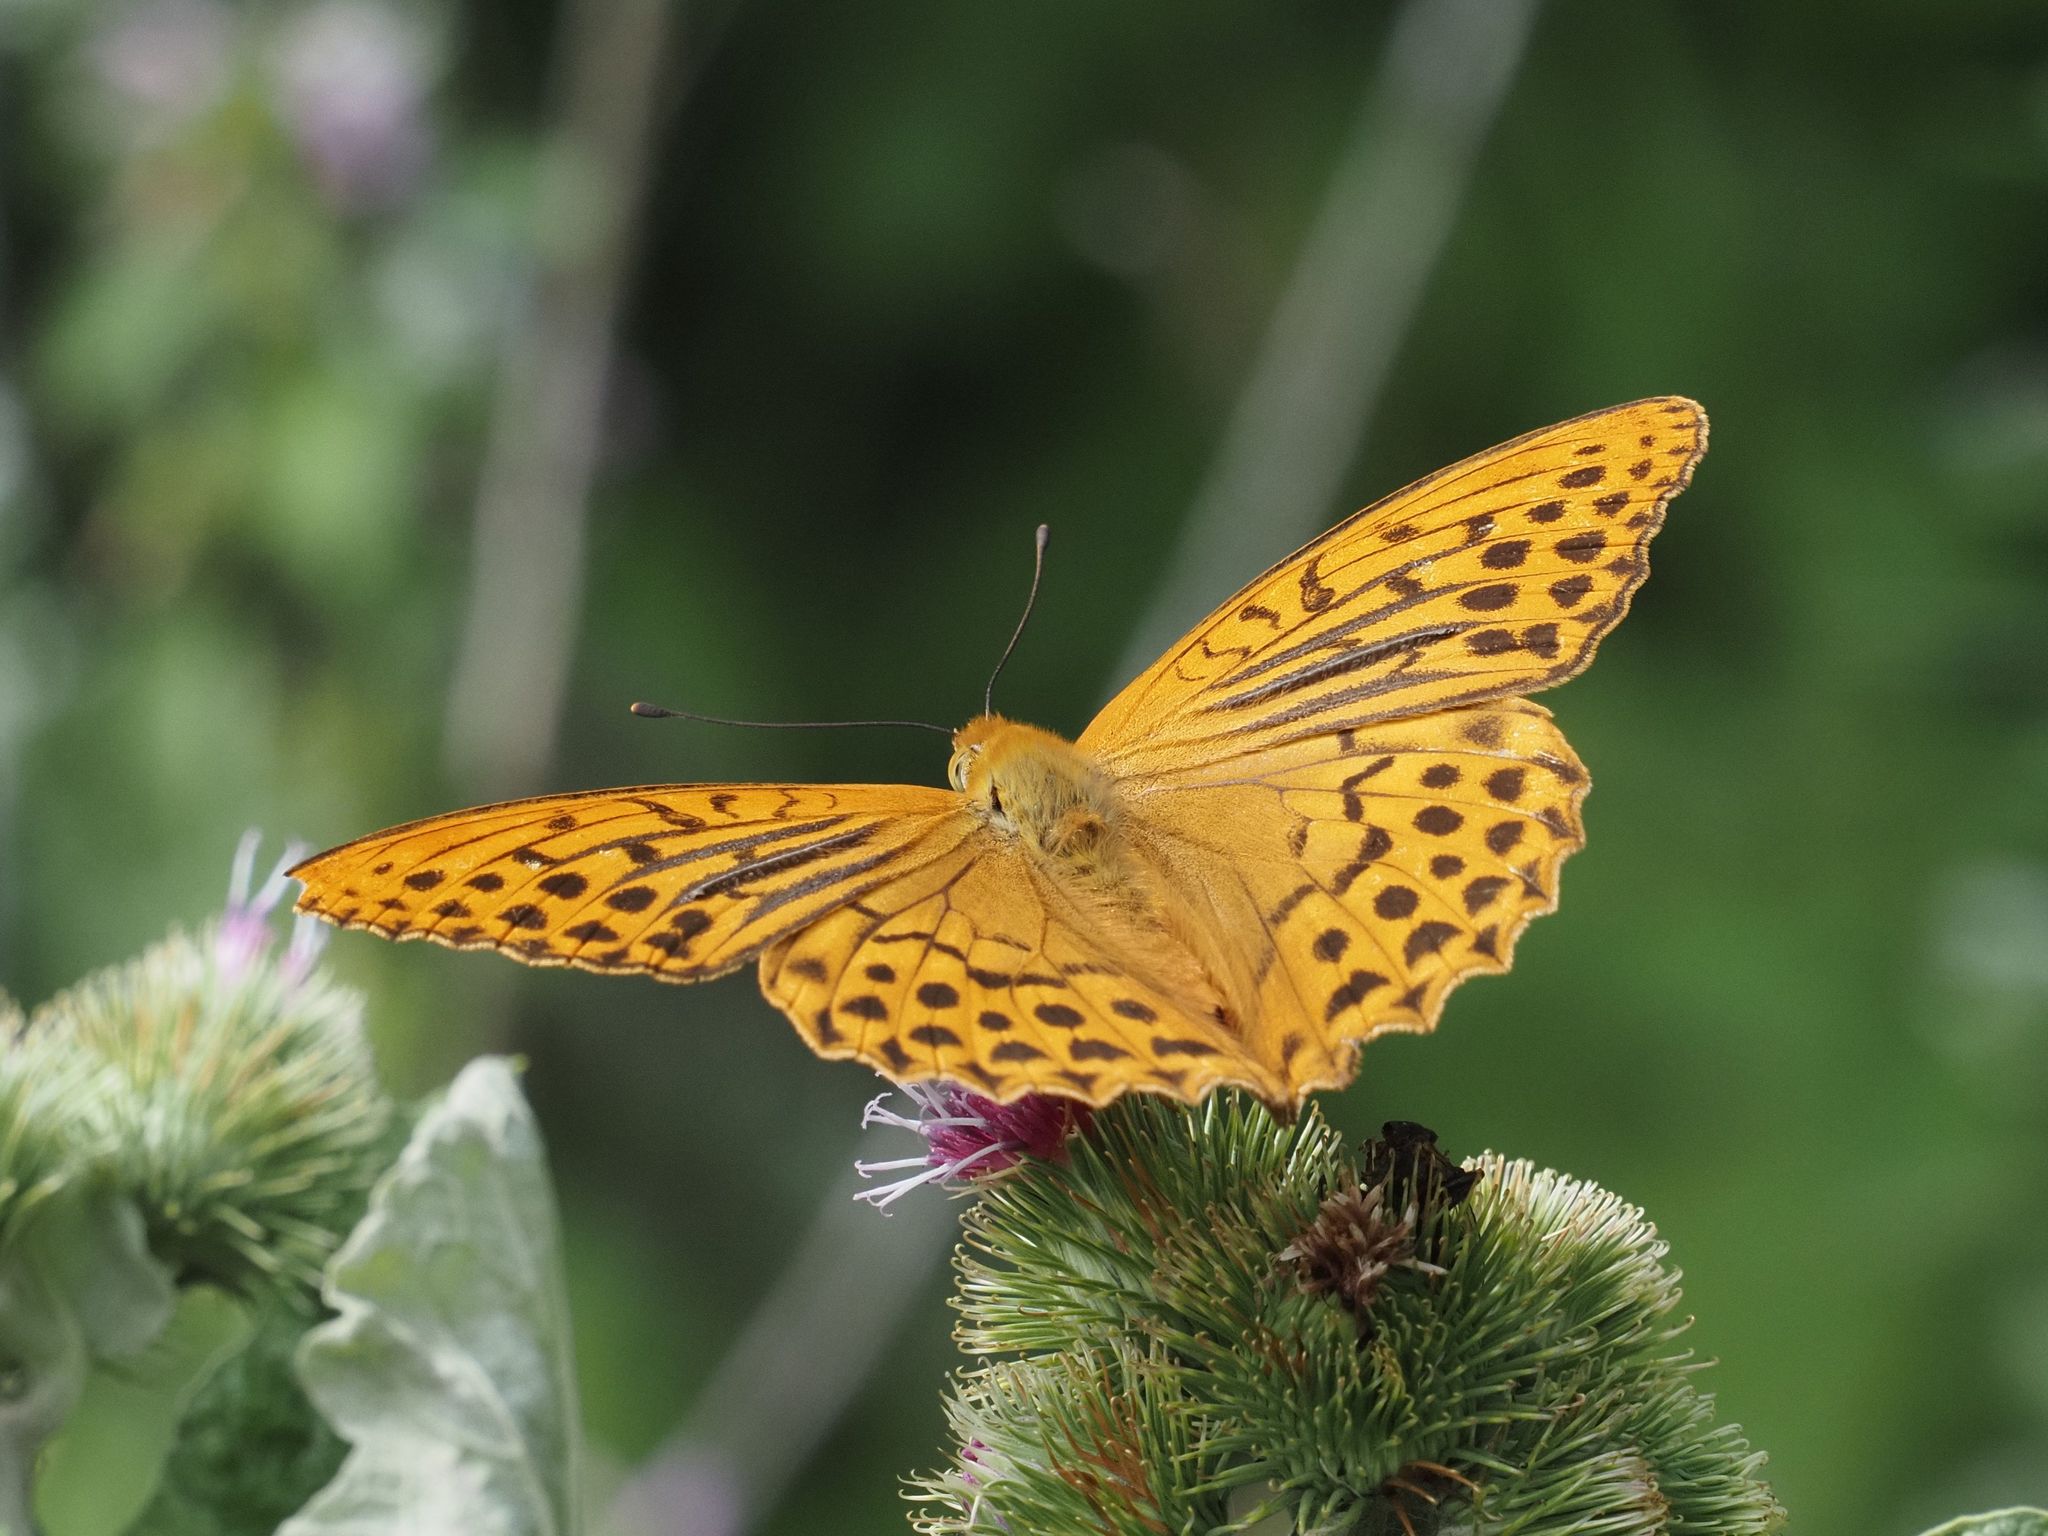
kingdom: Animalia
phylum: Arthropoda
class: Insecta
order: Lepidoptera
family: Nymphalidae
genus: Argynnis
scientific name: Argynnis paphia
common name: Silver-washed fritillary
